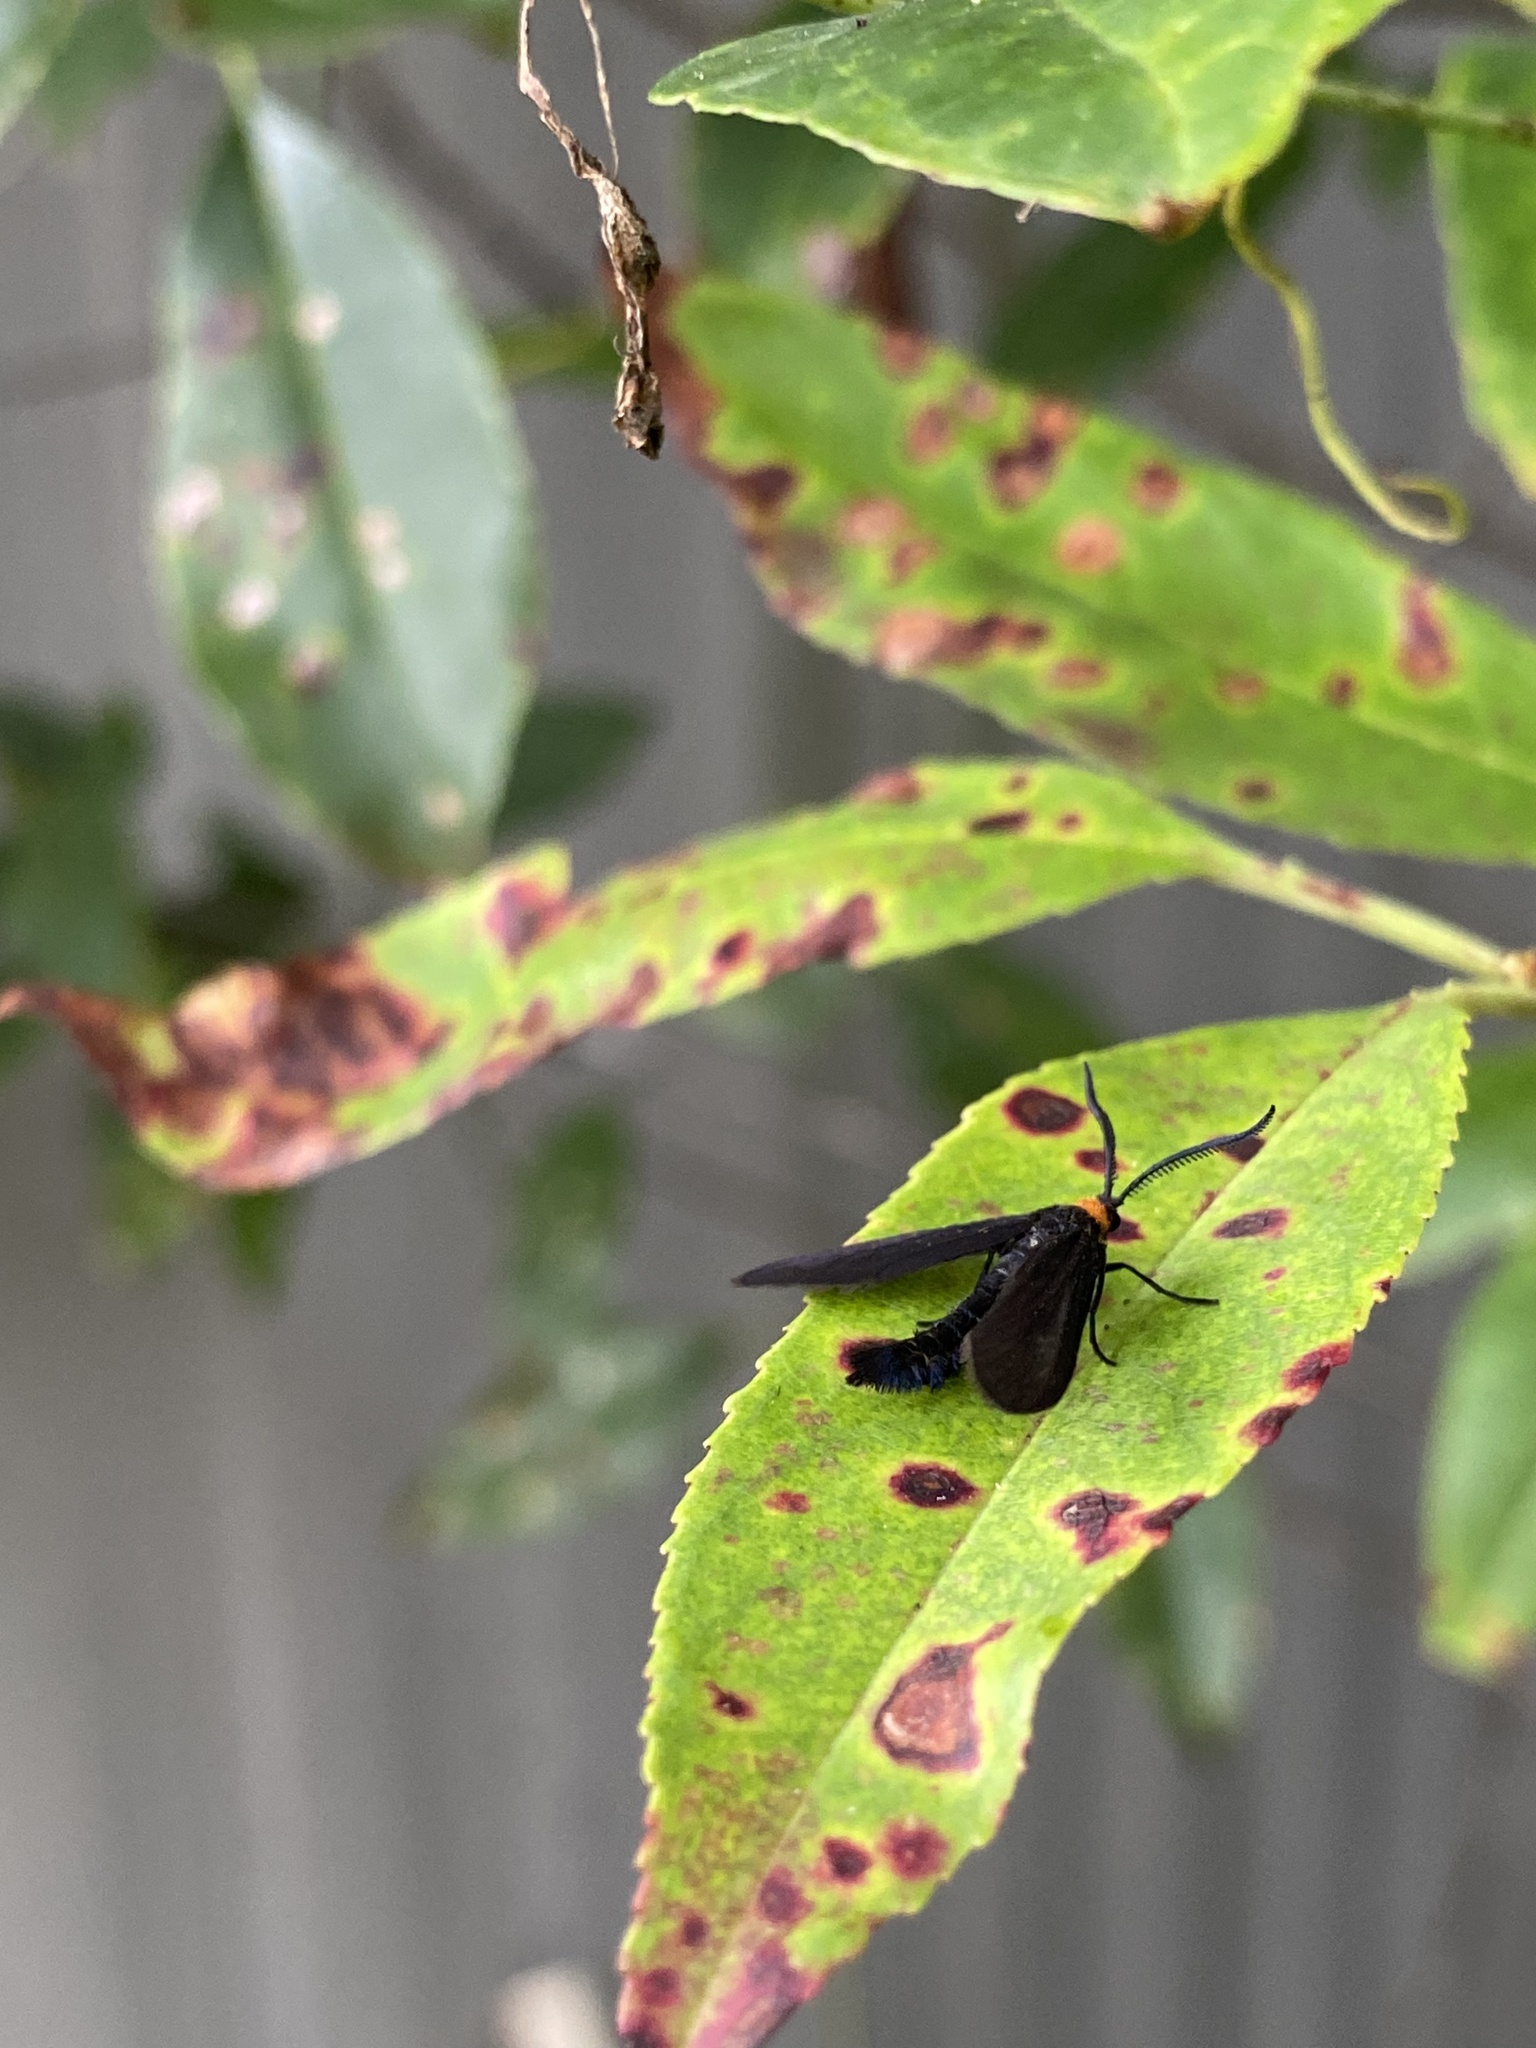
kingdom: Animalia
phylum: Arthropoda
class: Insecta
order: Lepidoptera
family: Zygaenidae
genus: Harrisina
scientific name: Harrisina americana
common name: Grapeleaf skeletonizer moth
